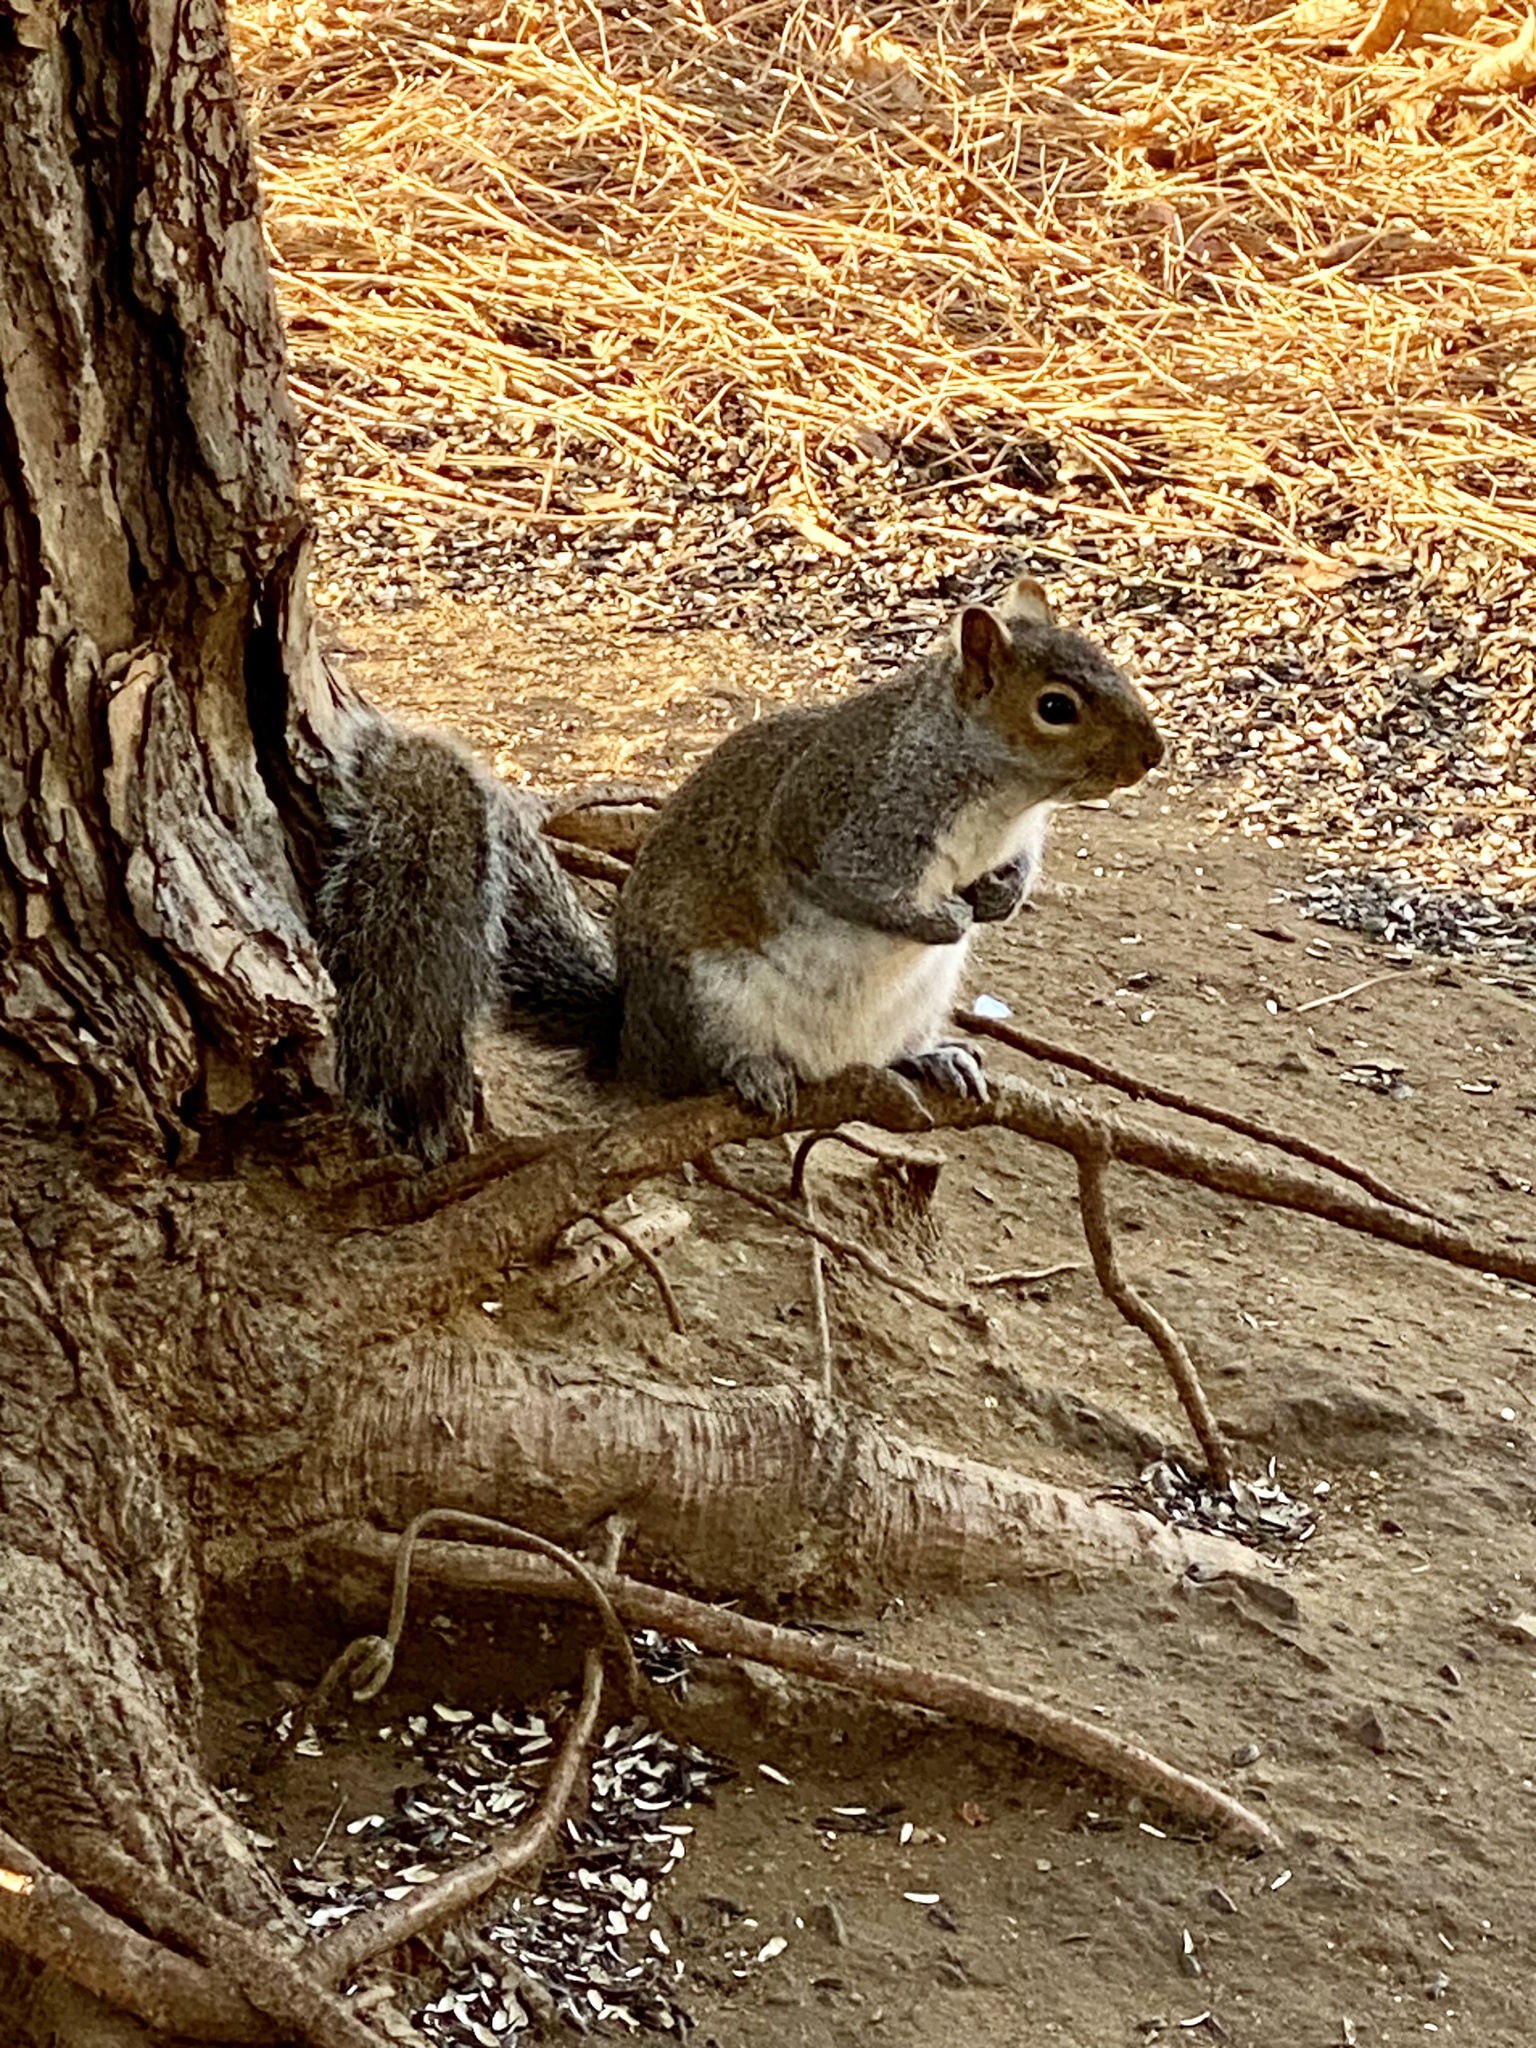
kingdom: Animalia
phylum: Chordata
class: Mammalia
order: Rodentia
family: Sciuridae
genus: Sciurus
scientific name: Sciurus carolinensis
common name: Eastern gray squirrel
